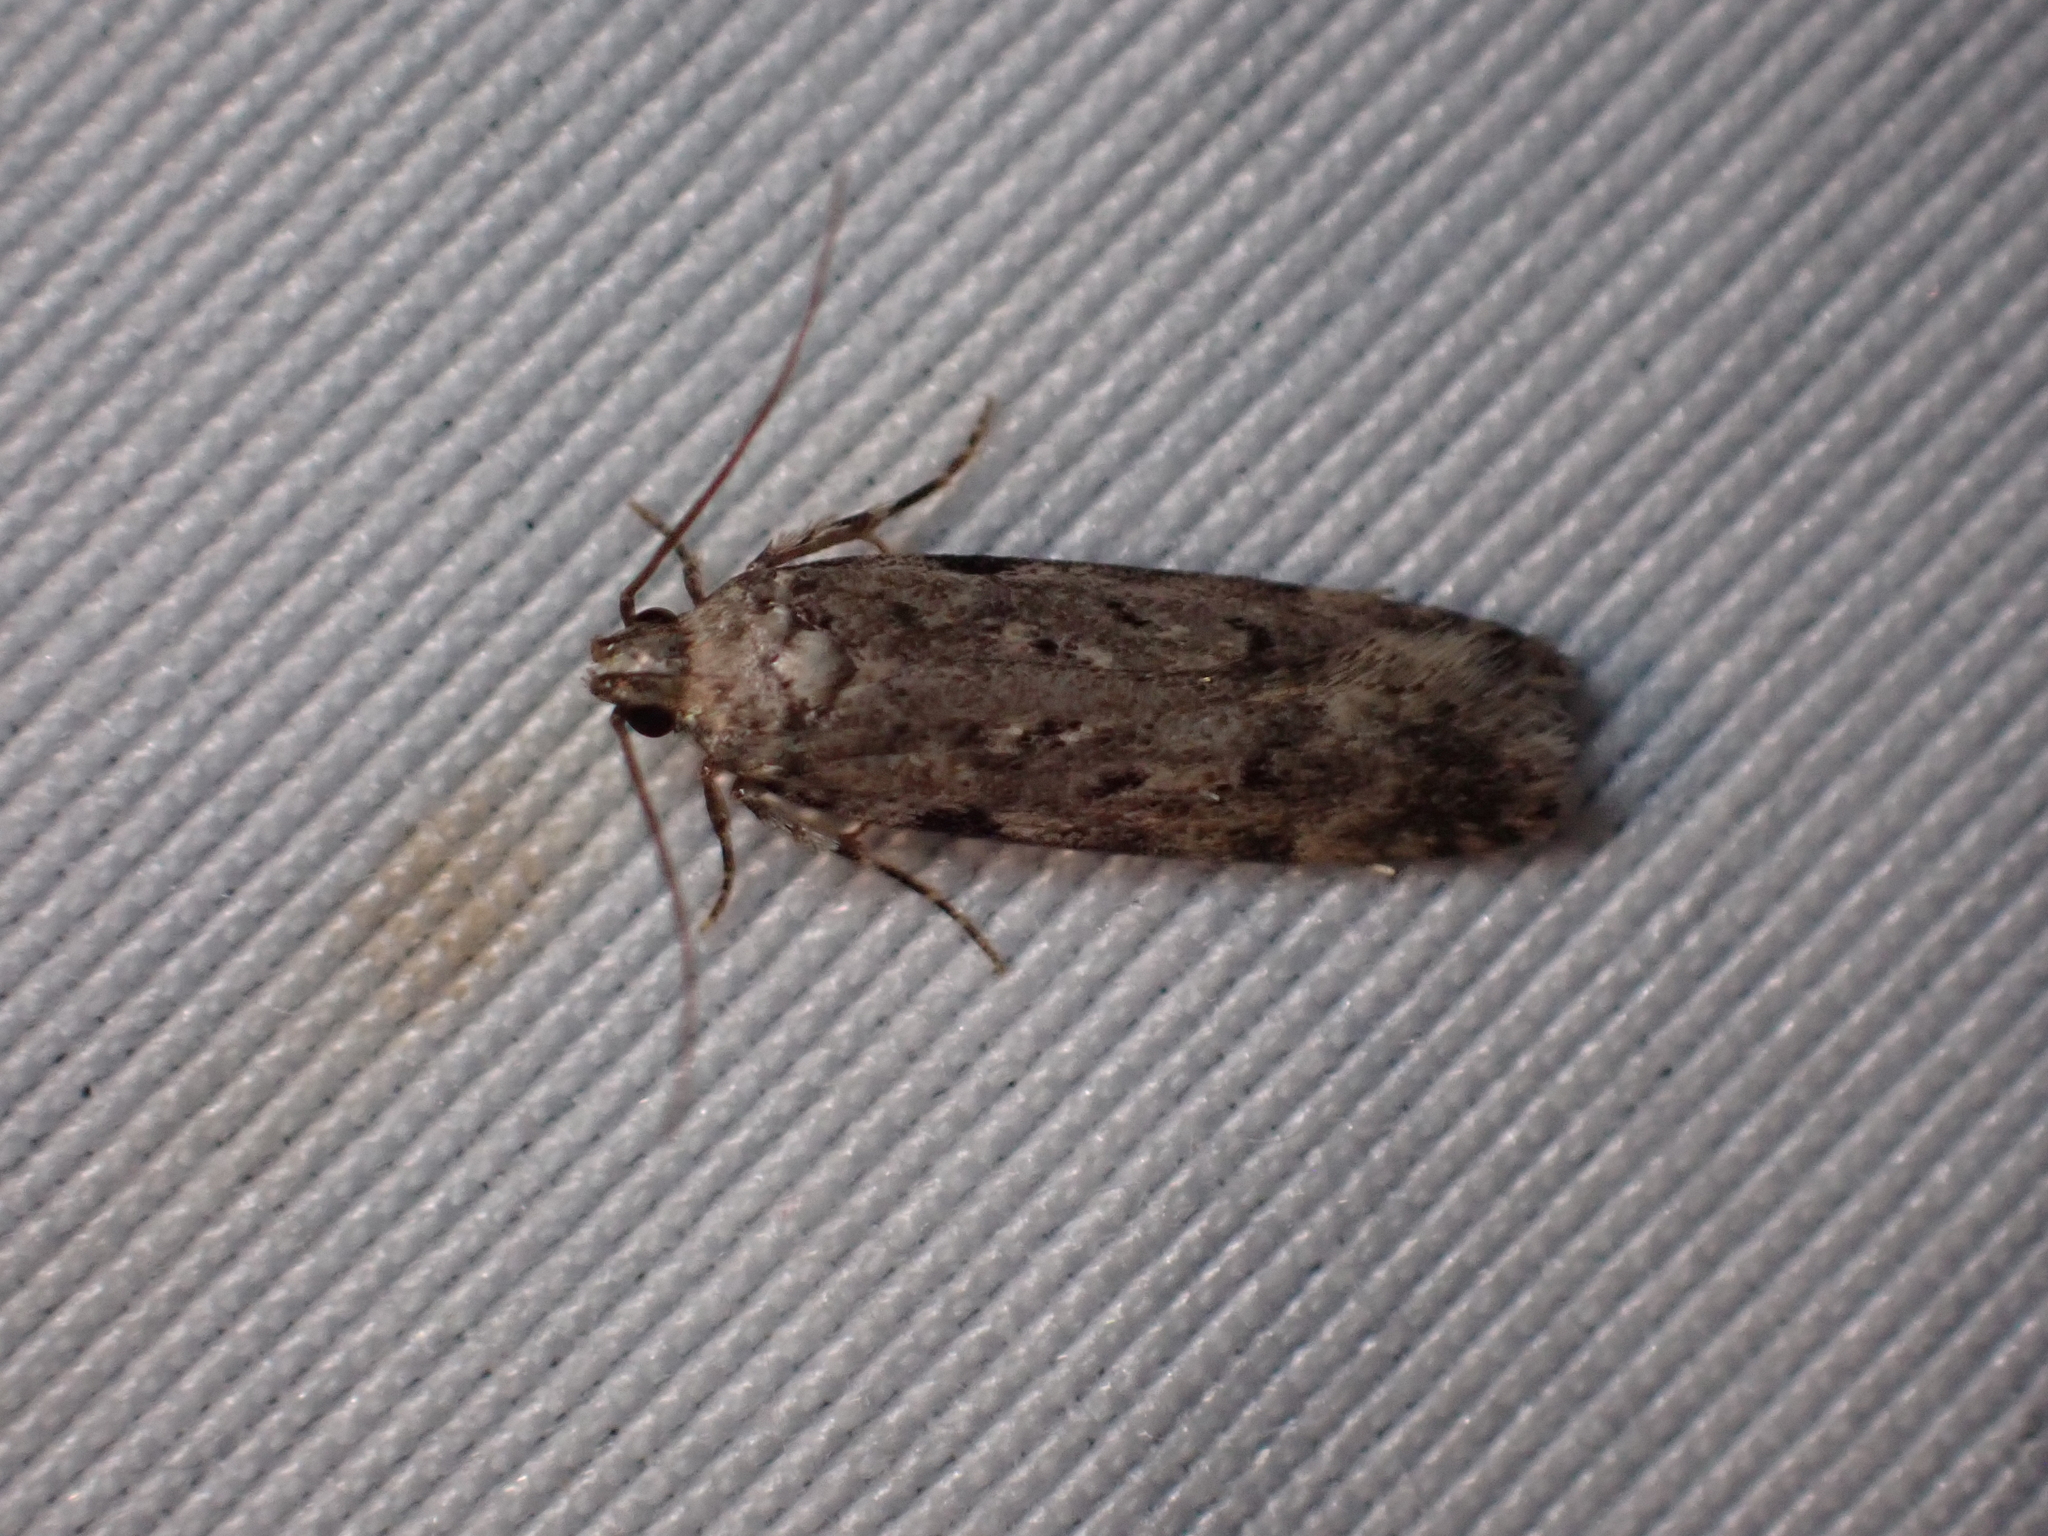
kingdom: Animalia
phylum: Arthropoda
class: Insecta
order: Lepidoptera
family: Gelechiidae
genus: Chionodes
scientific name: Chionodes petalumensis
